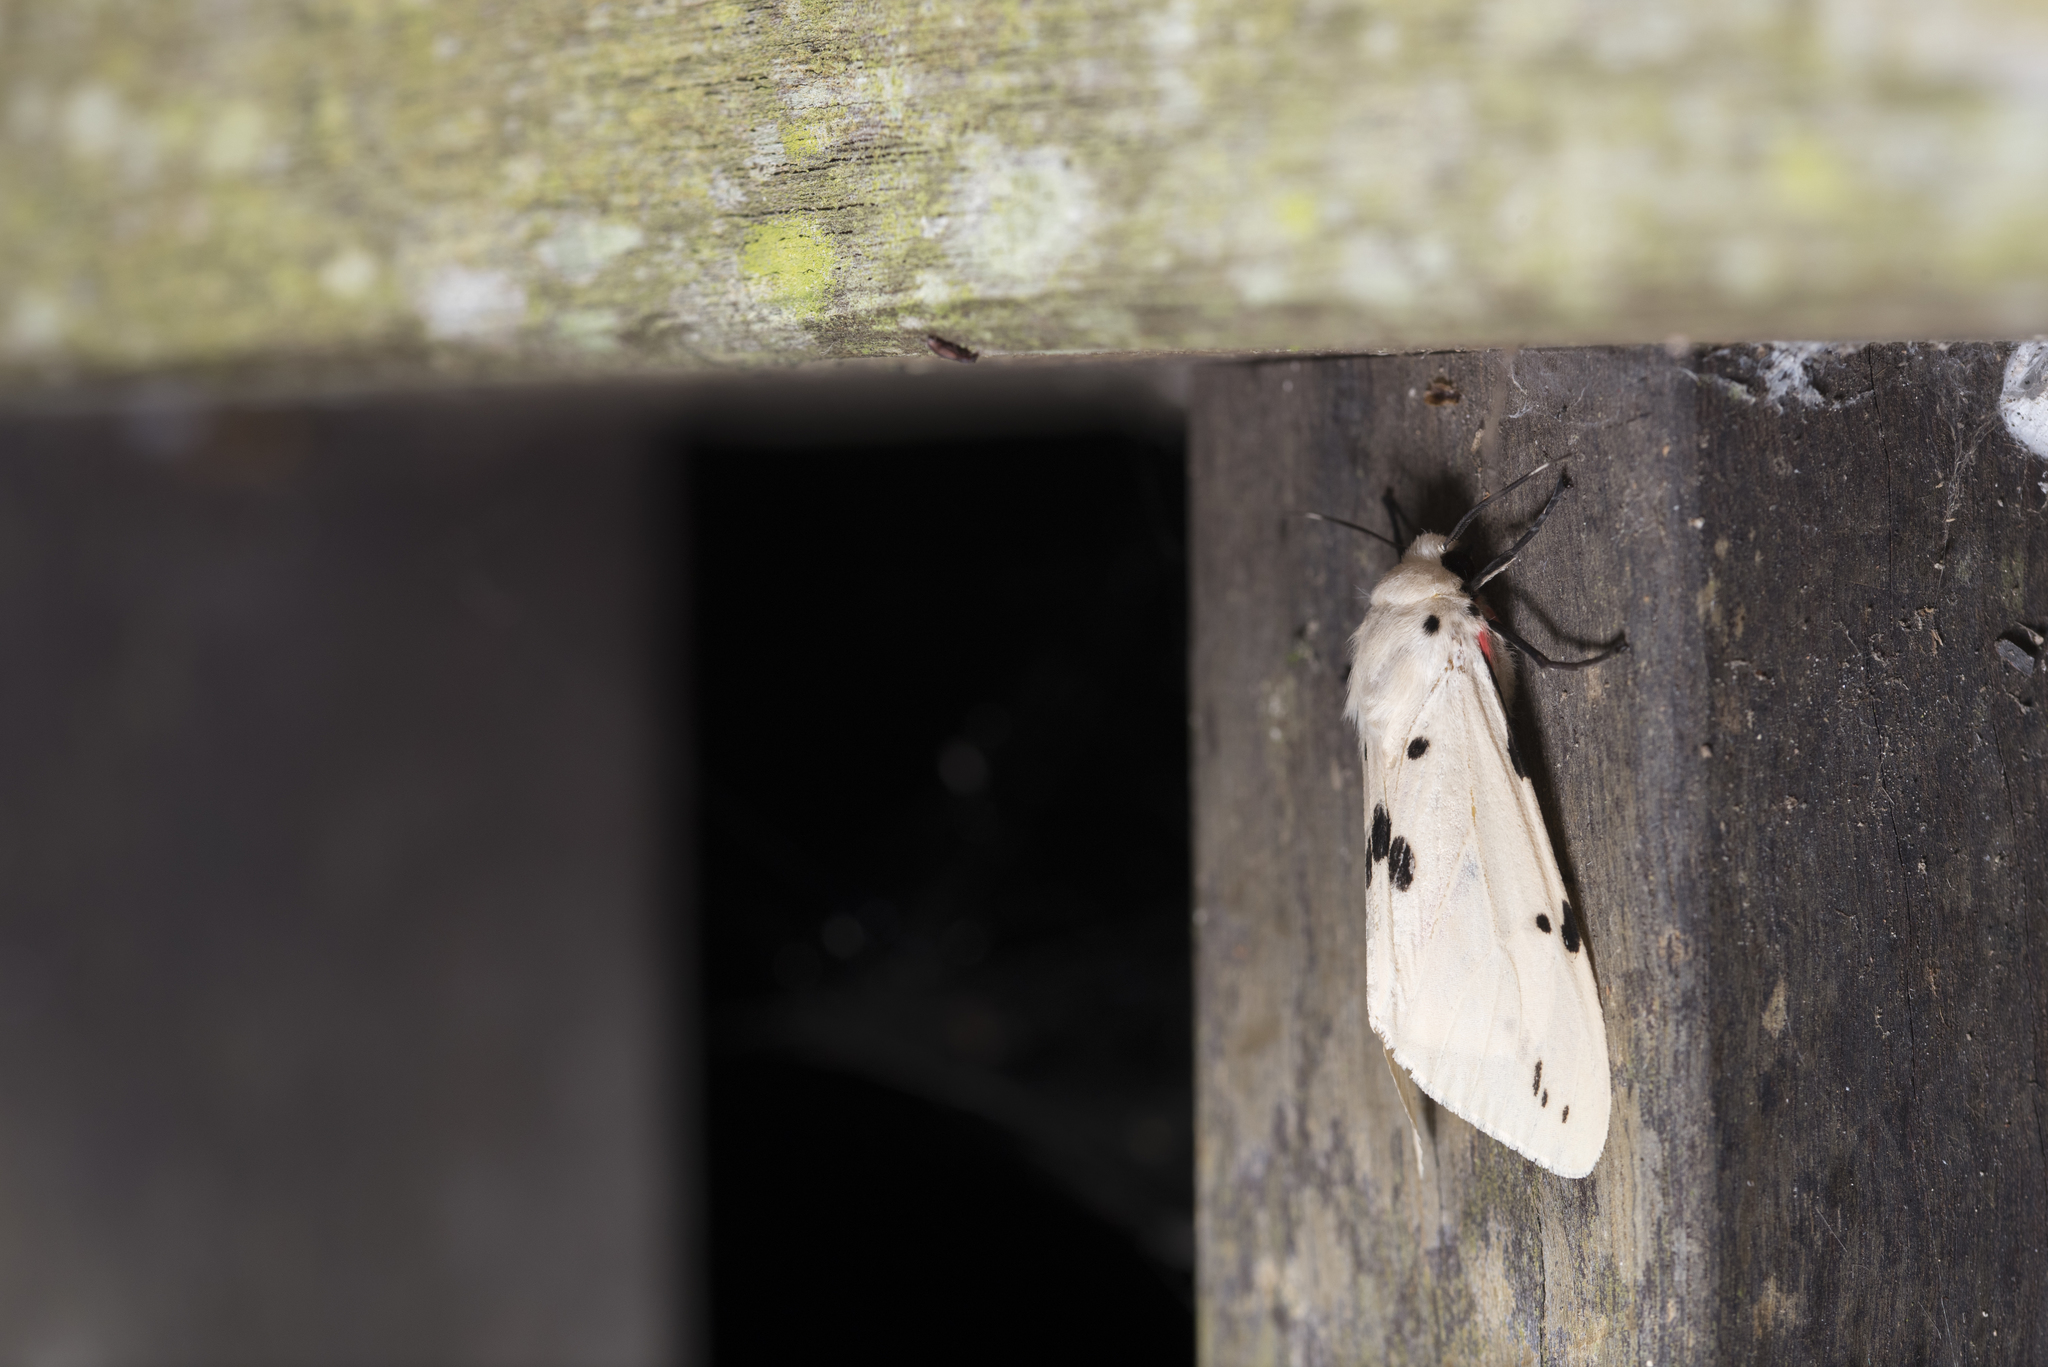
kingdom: Animalia
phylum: Arthropoda
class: Insecta
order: Lepidoptera
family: Erebidae
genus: Spilarctia
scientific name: Spilarctia alba
